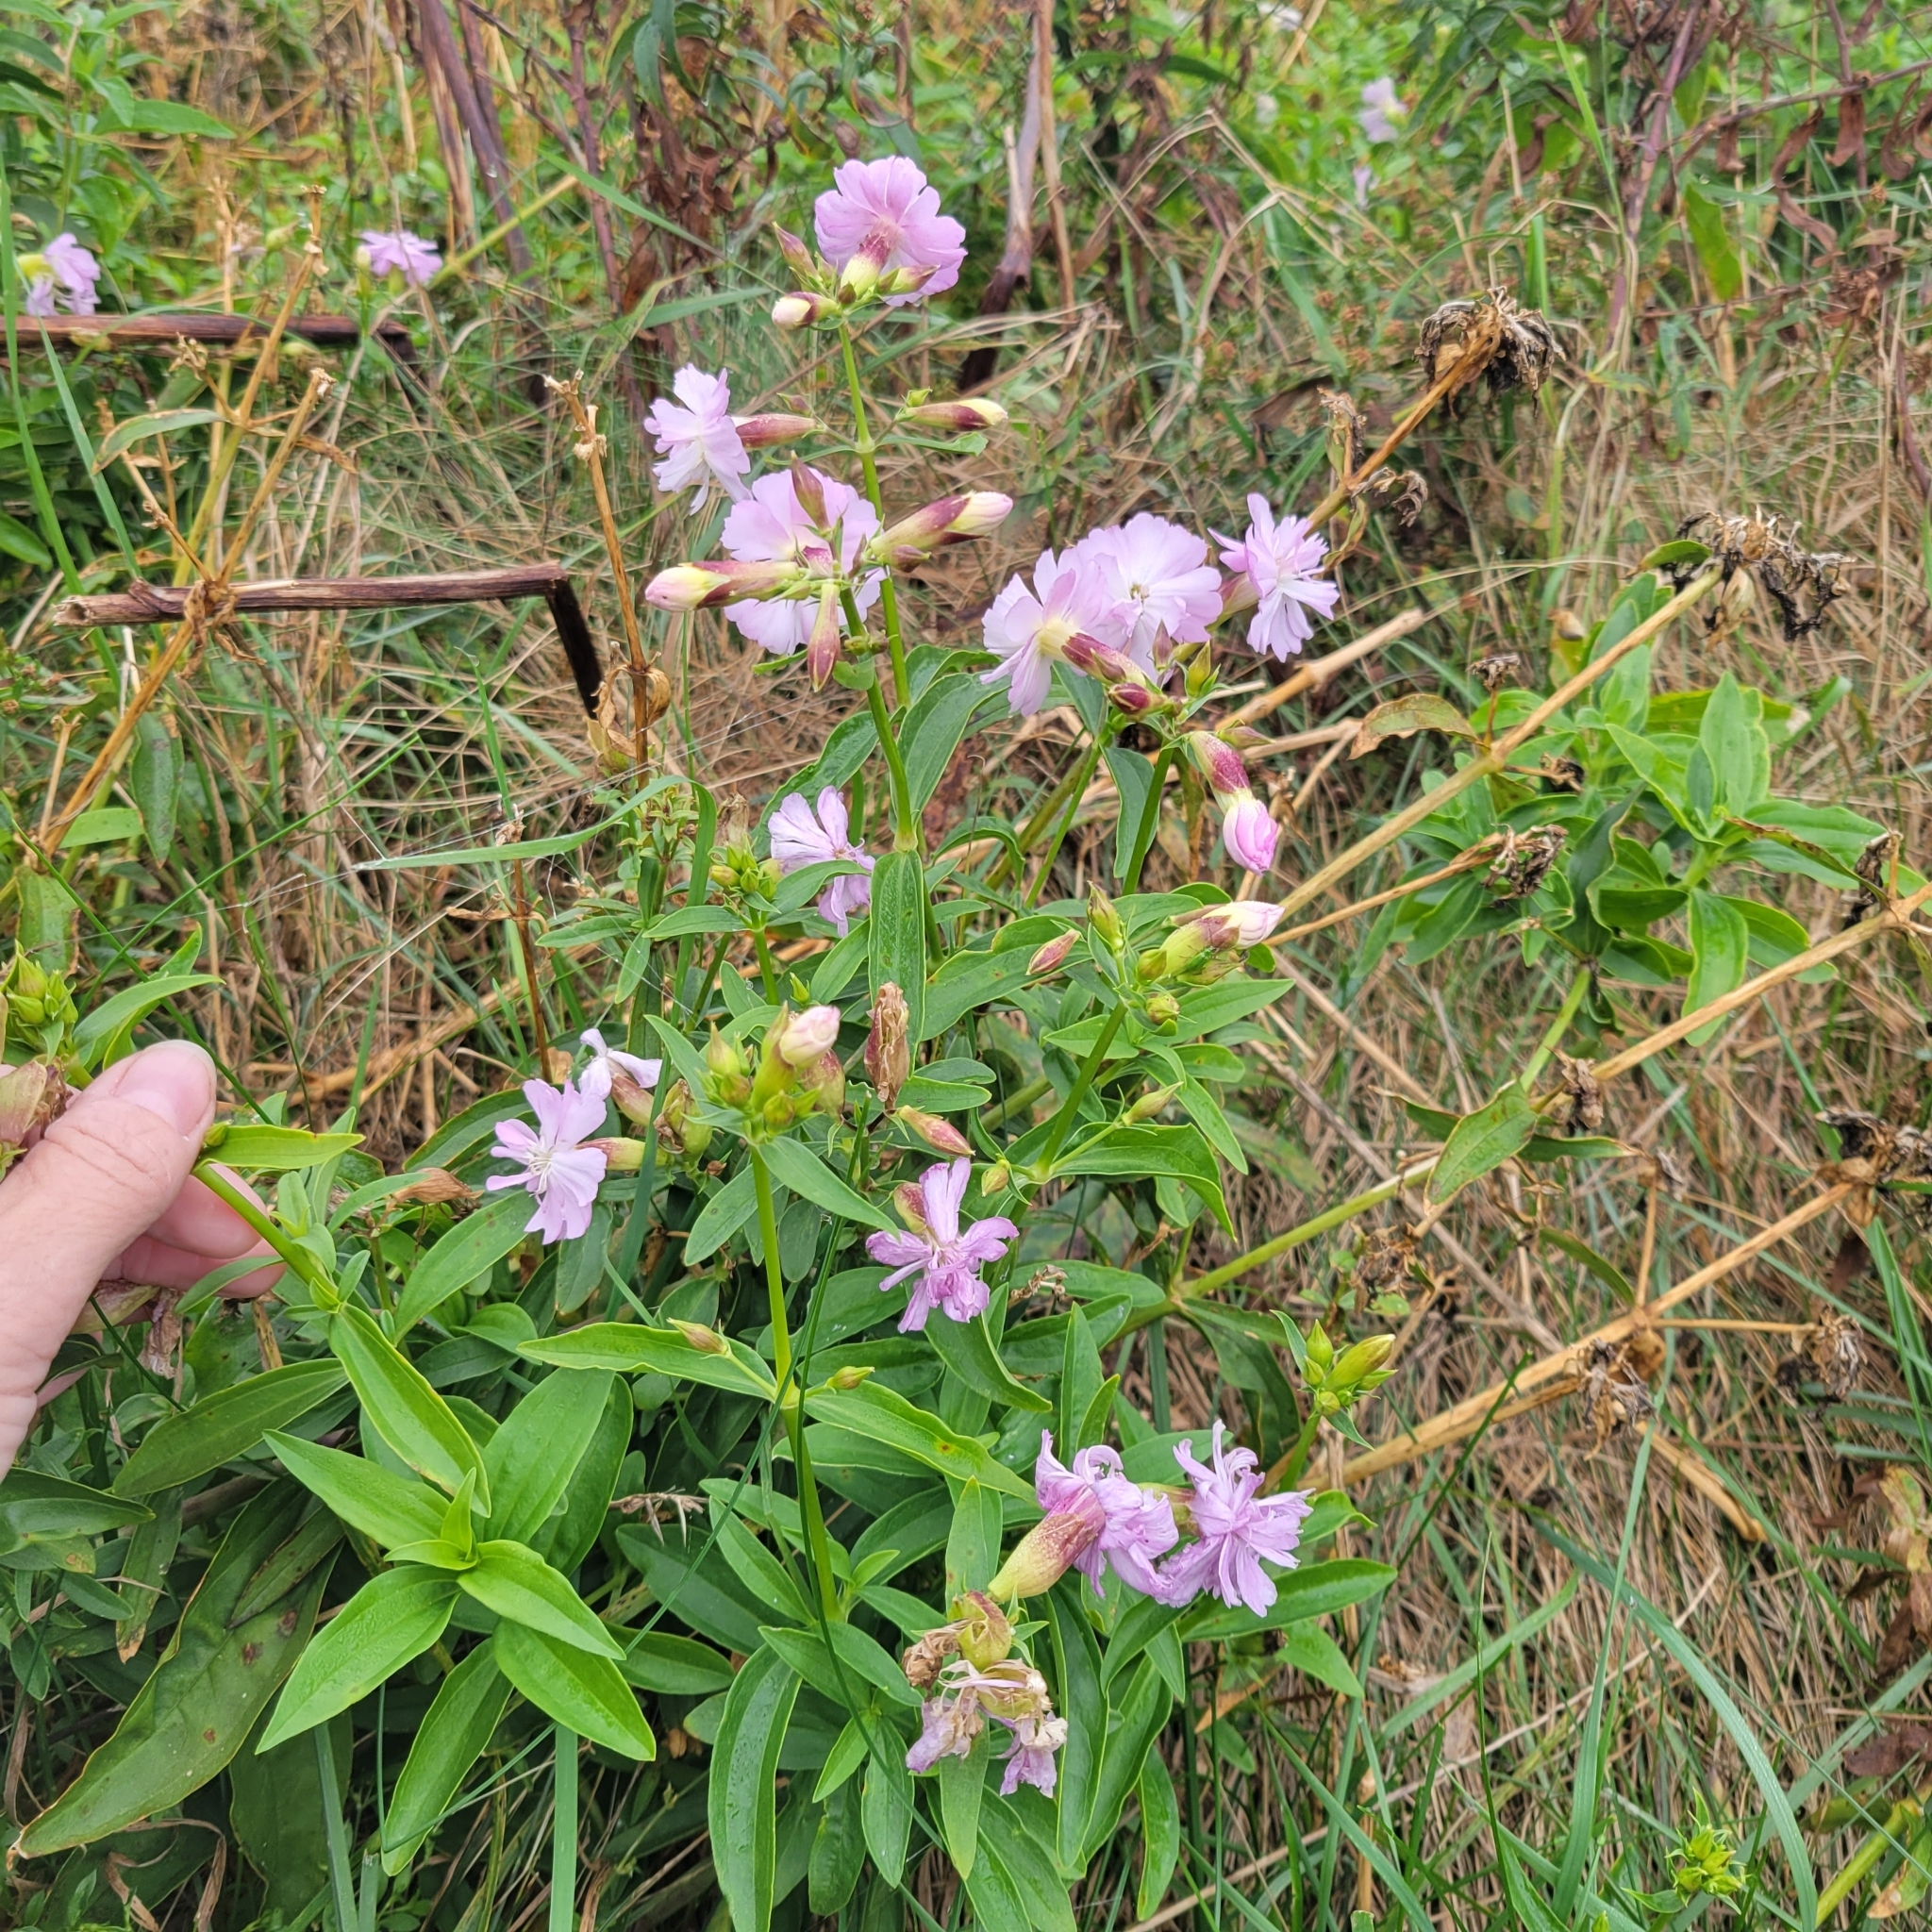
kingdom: Plantae
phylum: Tracheophyta
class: Magnoliopsida
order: Caryophyllales
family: Caryophyllaceae
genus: Saponaria
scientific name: Saponaria officinalis
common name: Soapwort
